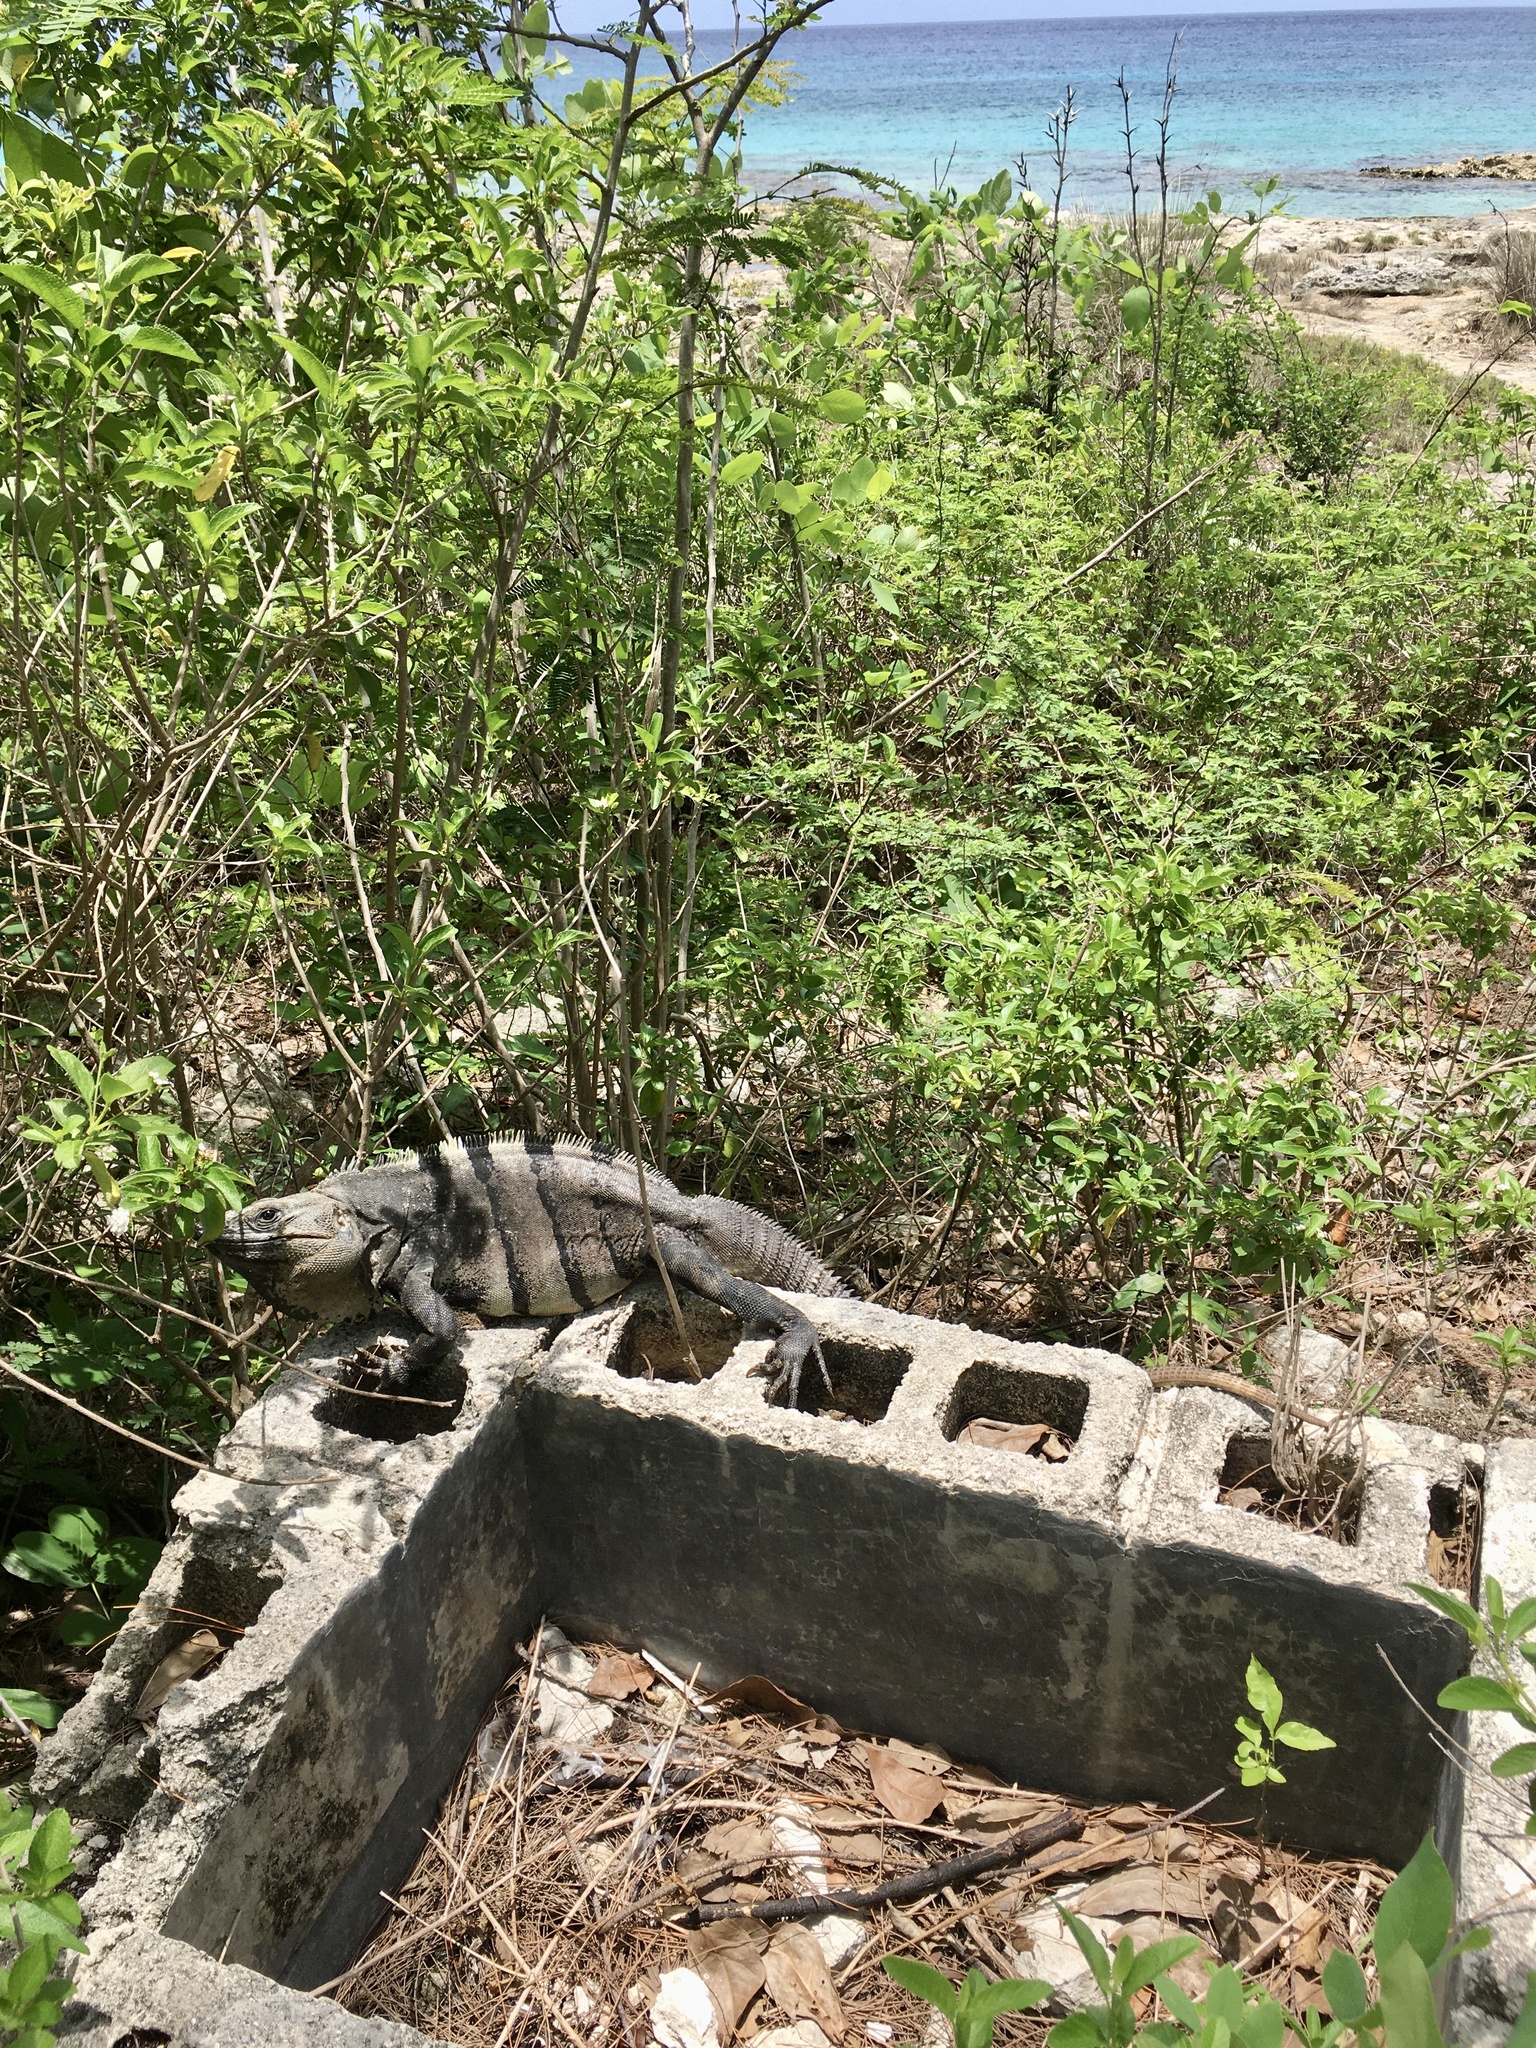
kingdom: Animalia
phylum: Chordata
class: Squamata
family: Iguanidae
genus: Ctenosaura
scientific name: Ctenosaura similis
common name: Black spiny-tailed iguana
